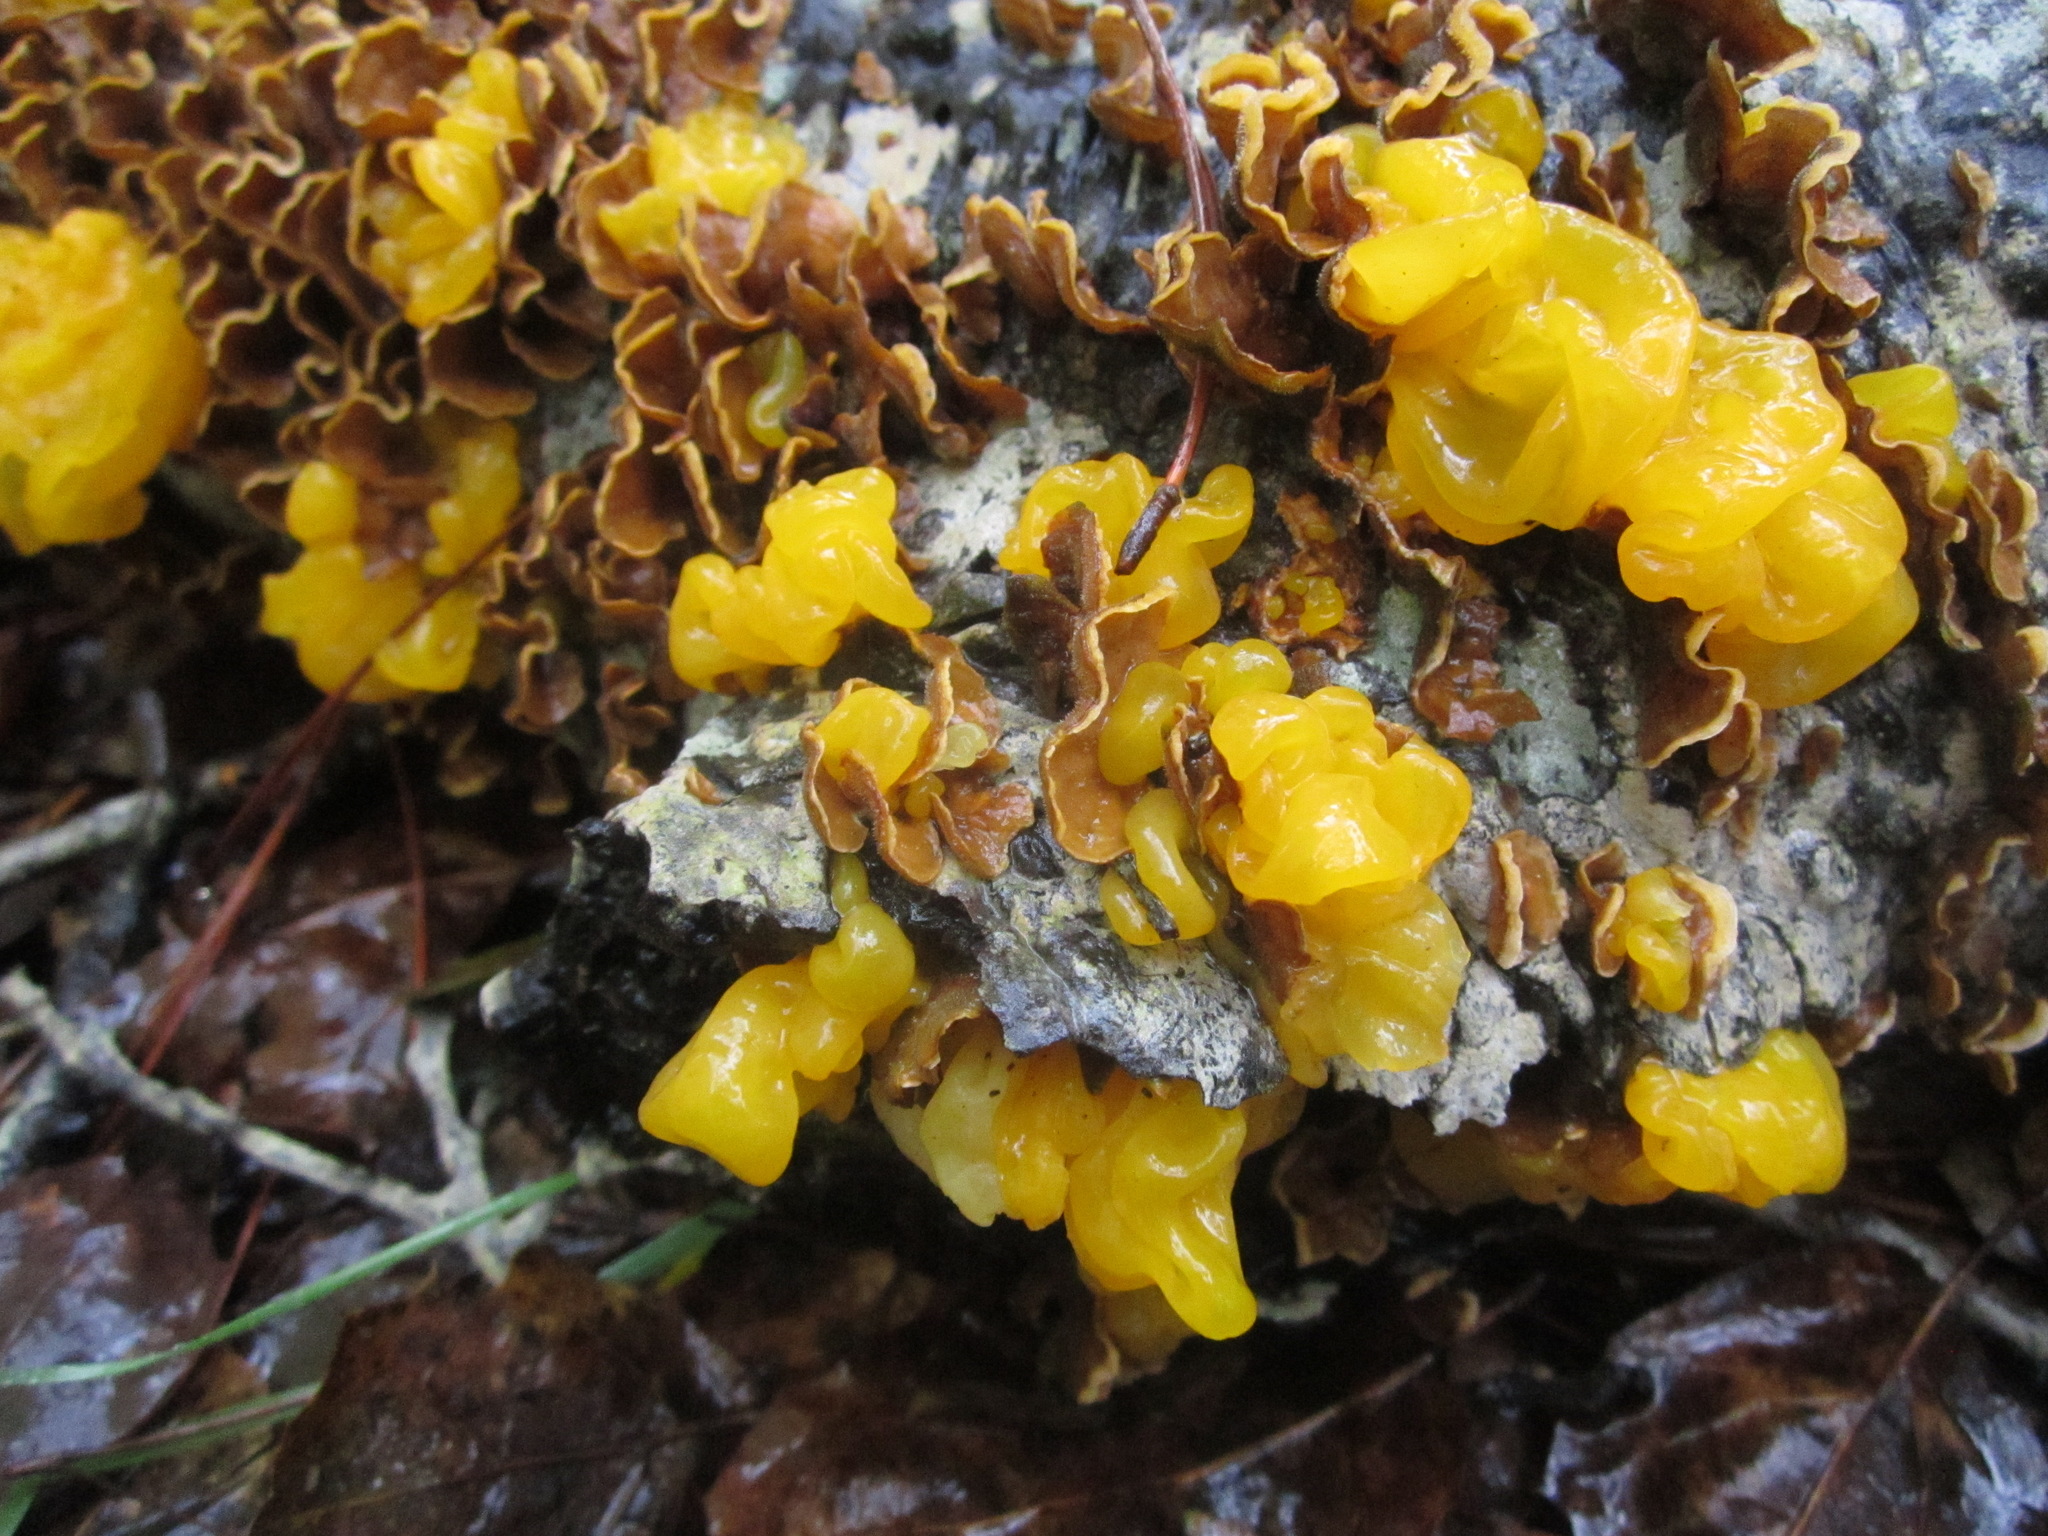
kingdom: Fungi
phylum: Basidiomycota
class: Tremellomycetes
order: Tremellales
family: Naemateliaceae
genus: Naematelia
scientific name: Naematelia aurantia
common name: Golden ear
